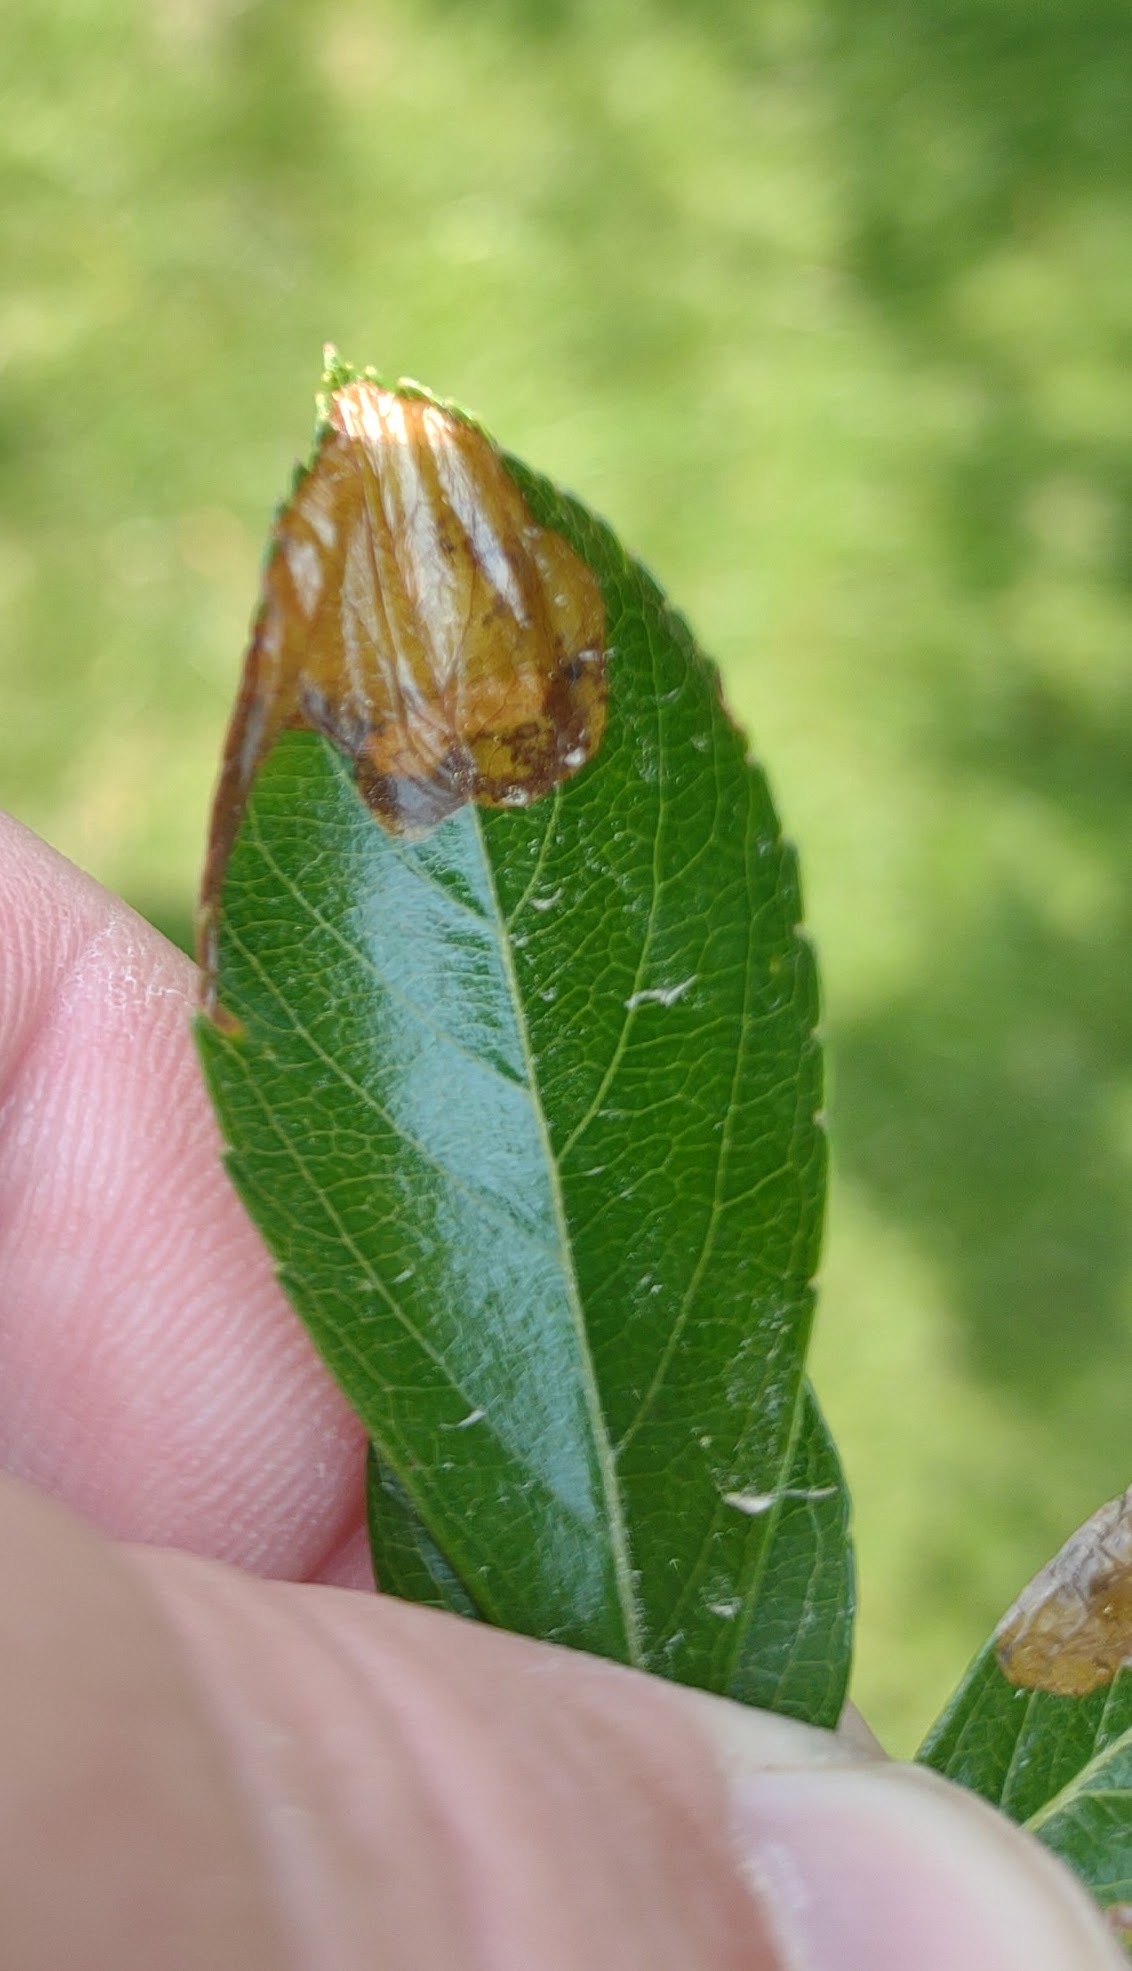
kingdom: Animalia
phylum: Arthropoda
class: Insecta
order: Hymenoptera
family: Tenthredinidae
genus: Profenusa
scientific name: Profenusa
